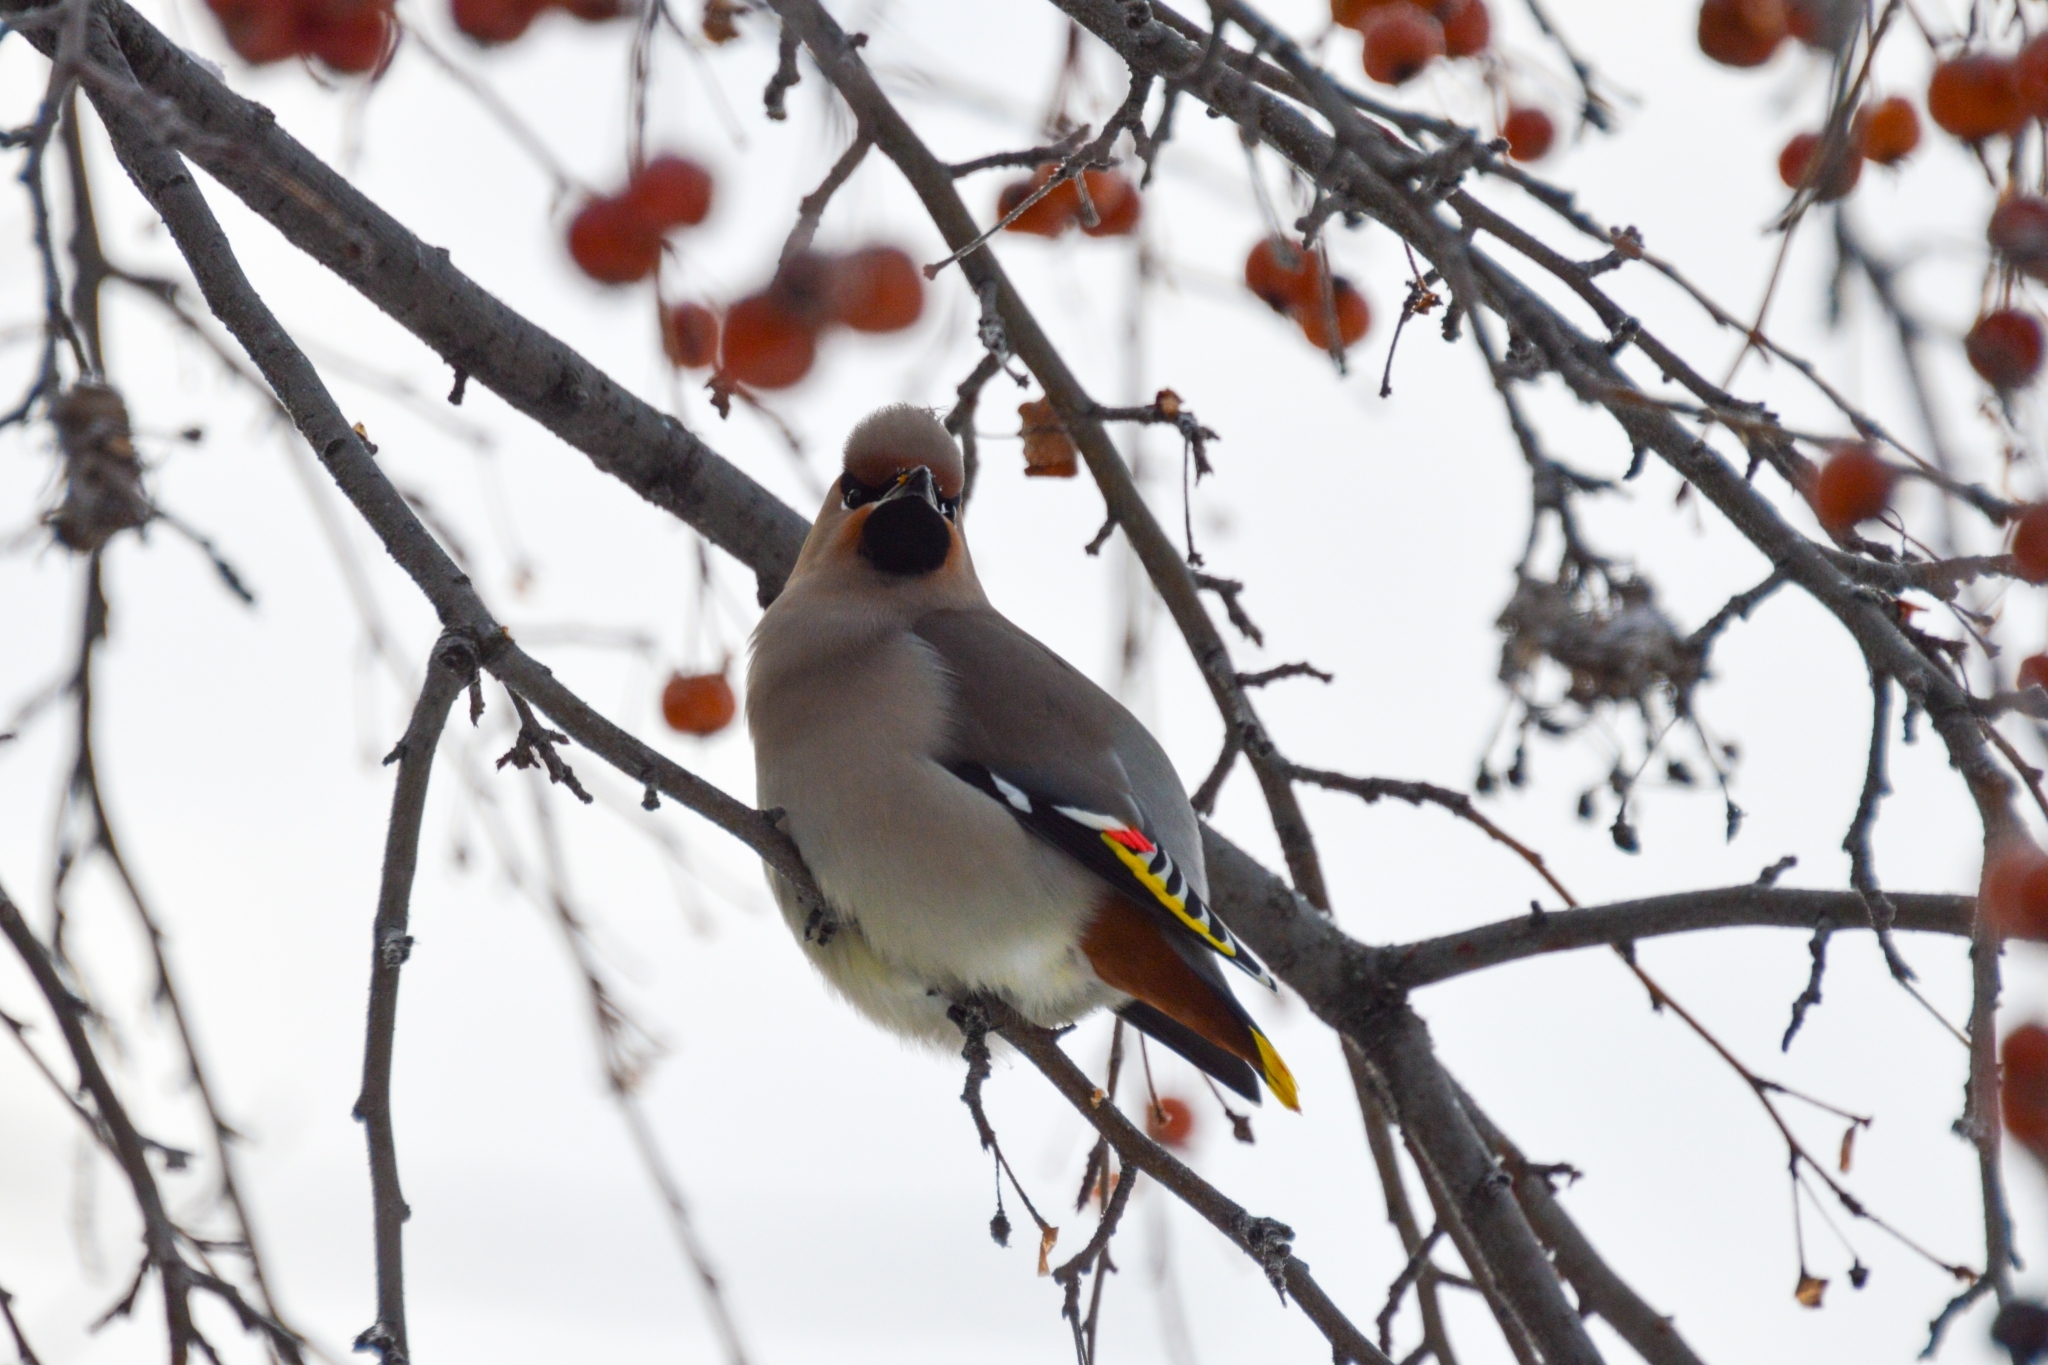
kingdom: Animalia
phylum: Chordata
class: Aves
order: Passeriformes
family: Bombycillidae
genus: Bombycilla
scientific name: Bombycilla garrulus
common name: Bohemian waxwing
